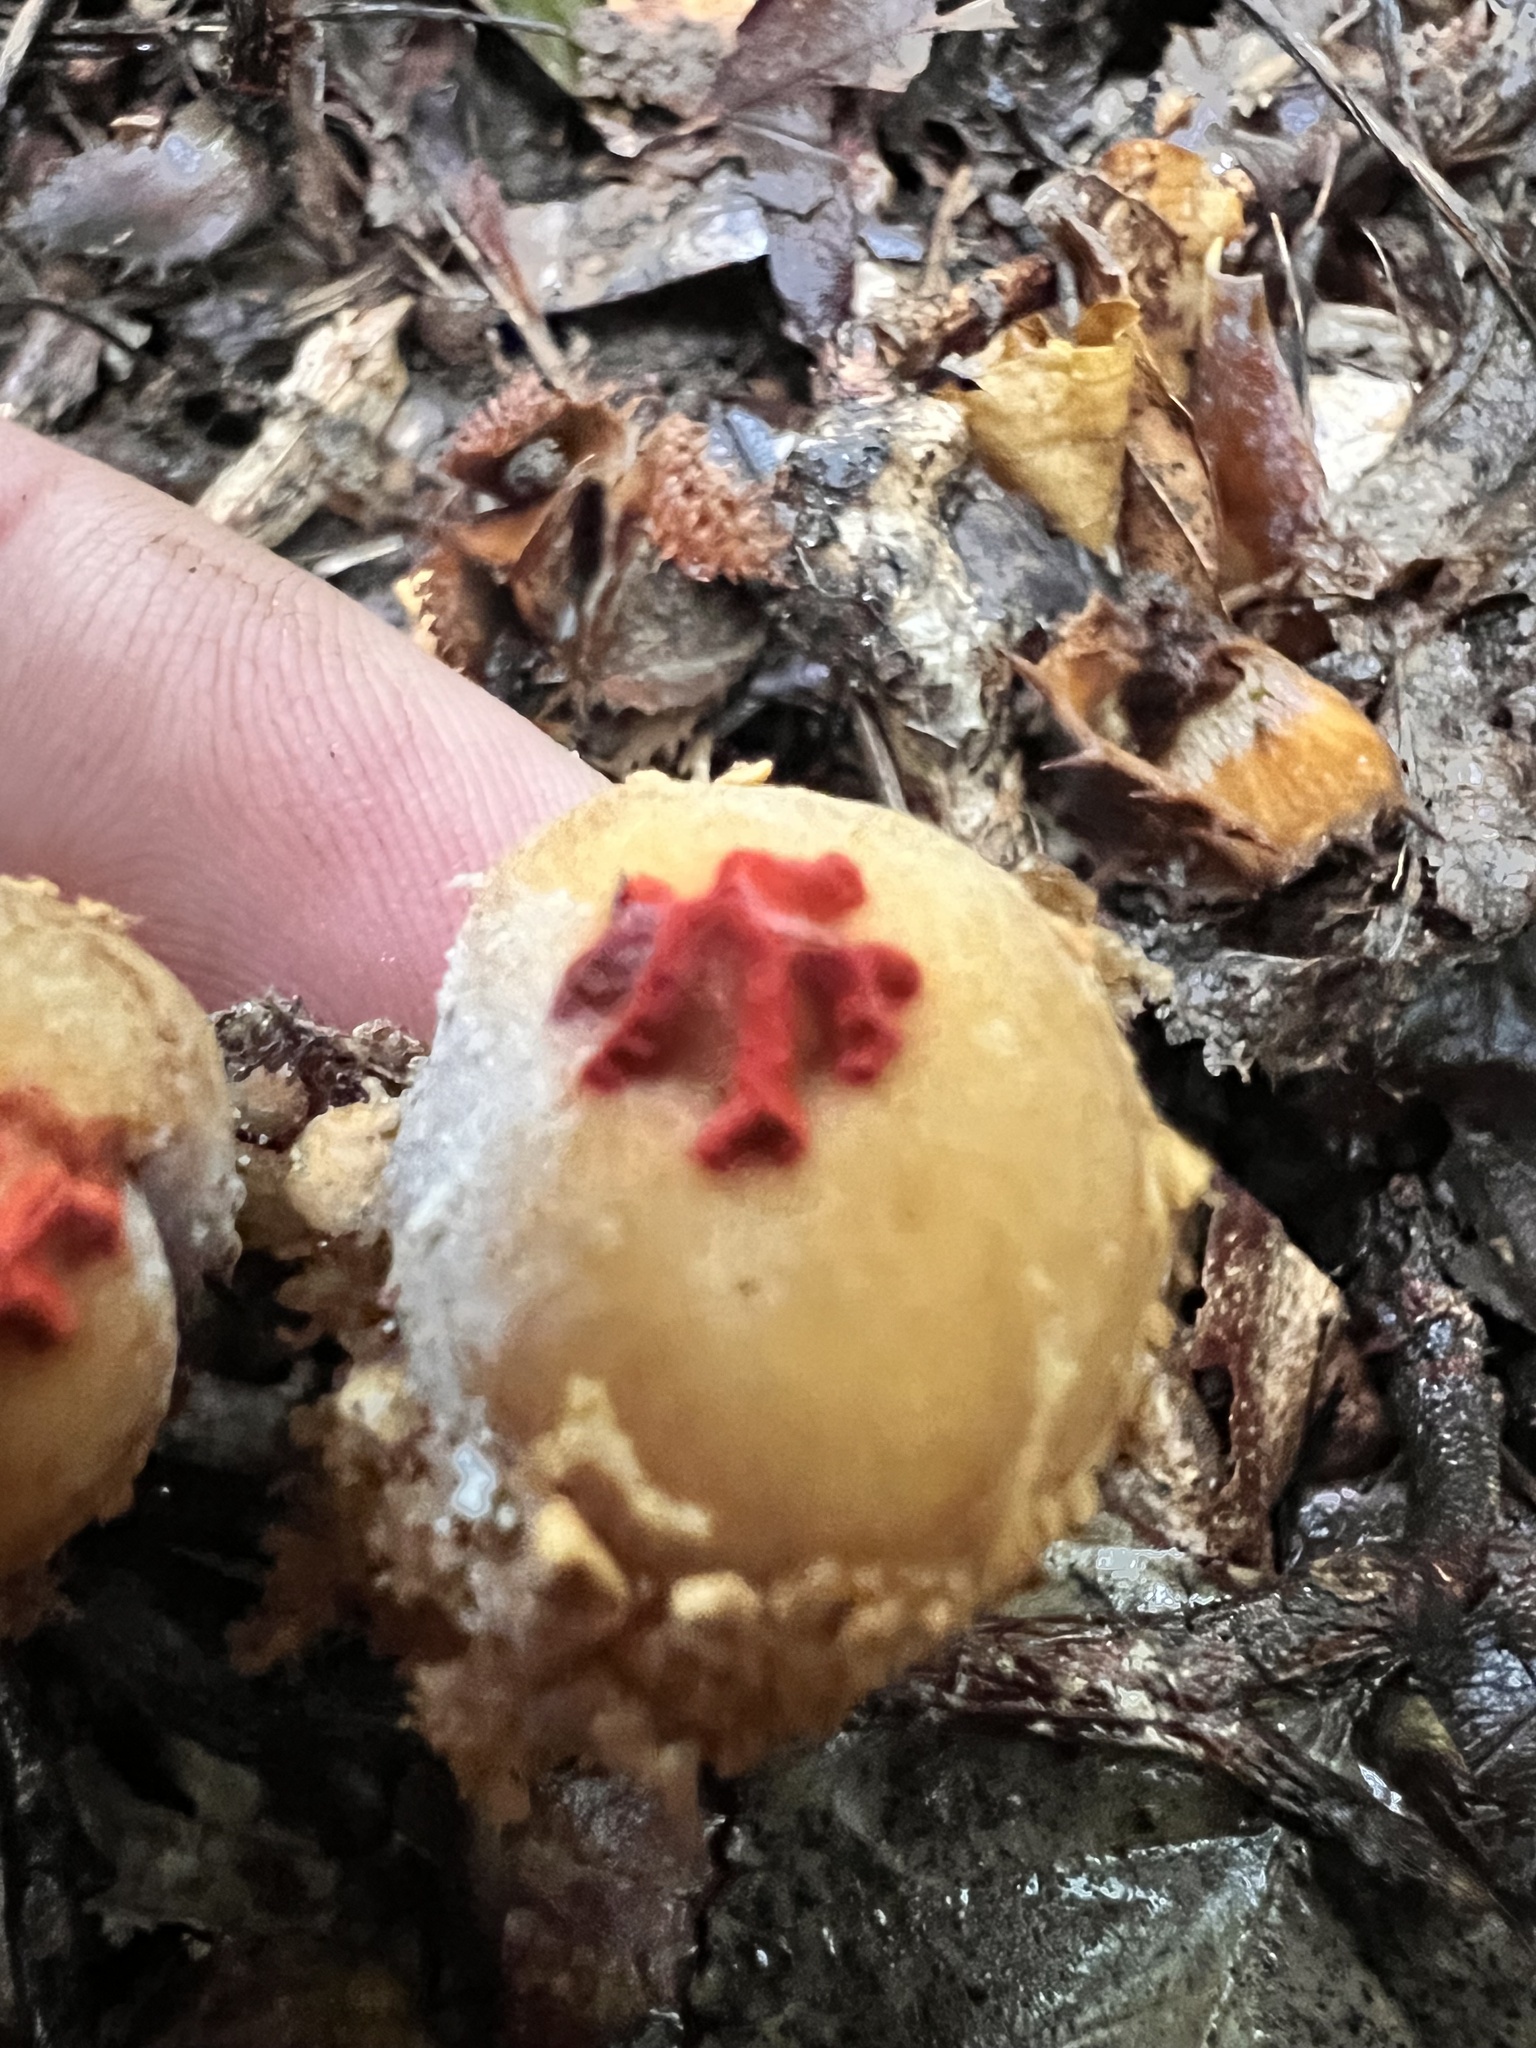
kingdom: Fungi
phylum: Basidiomycota
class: Agaricomycetes
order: Boletales
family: Calostomataceae
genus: Calostoma
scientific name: Calostoma ravenelii
